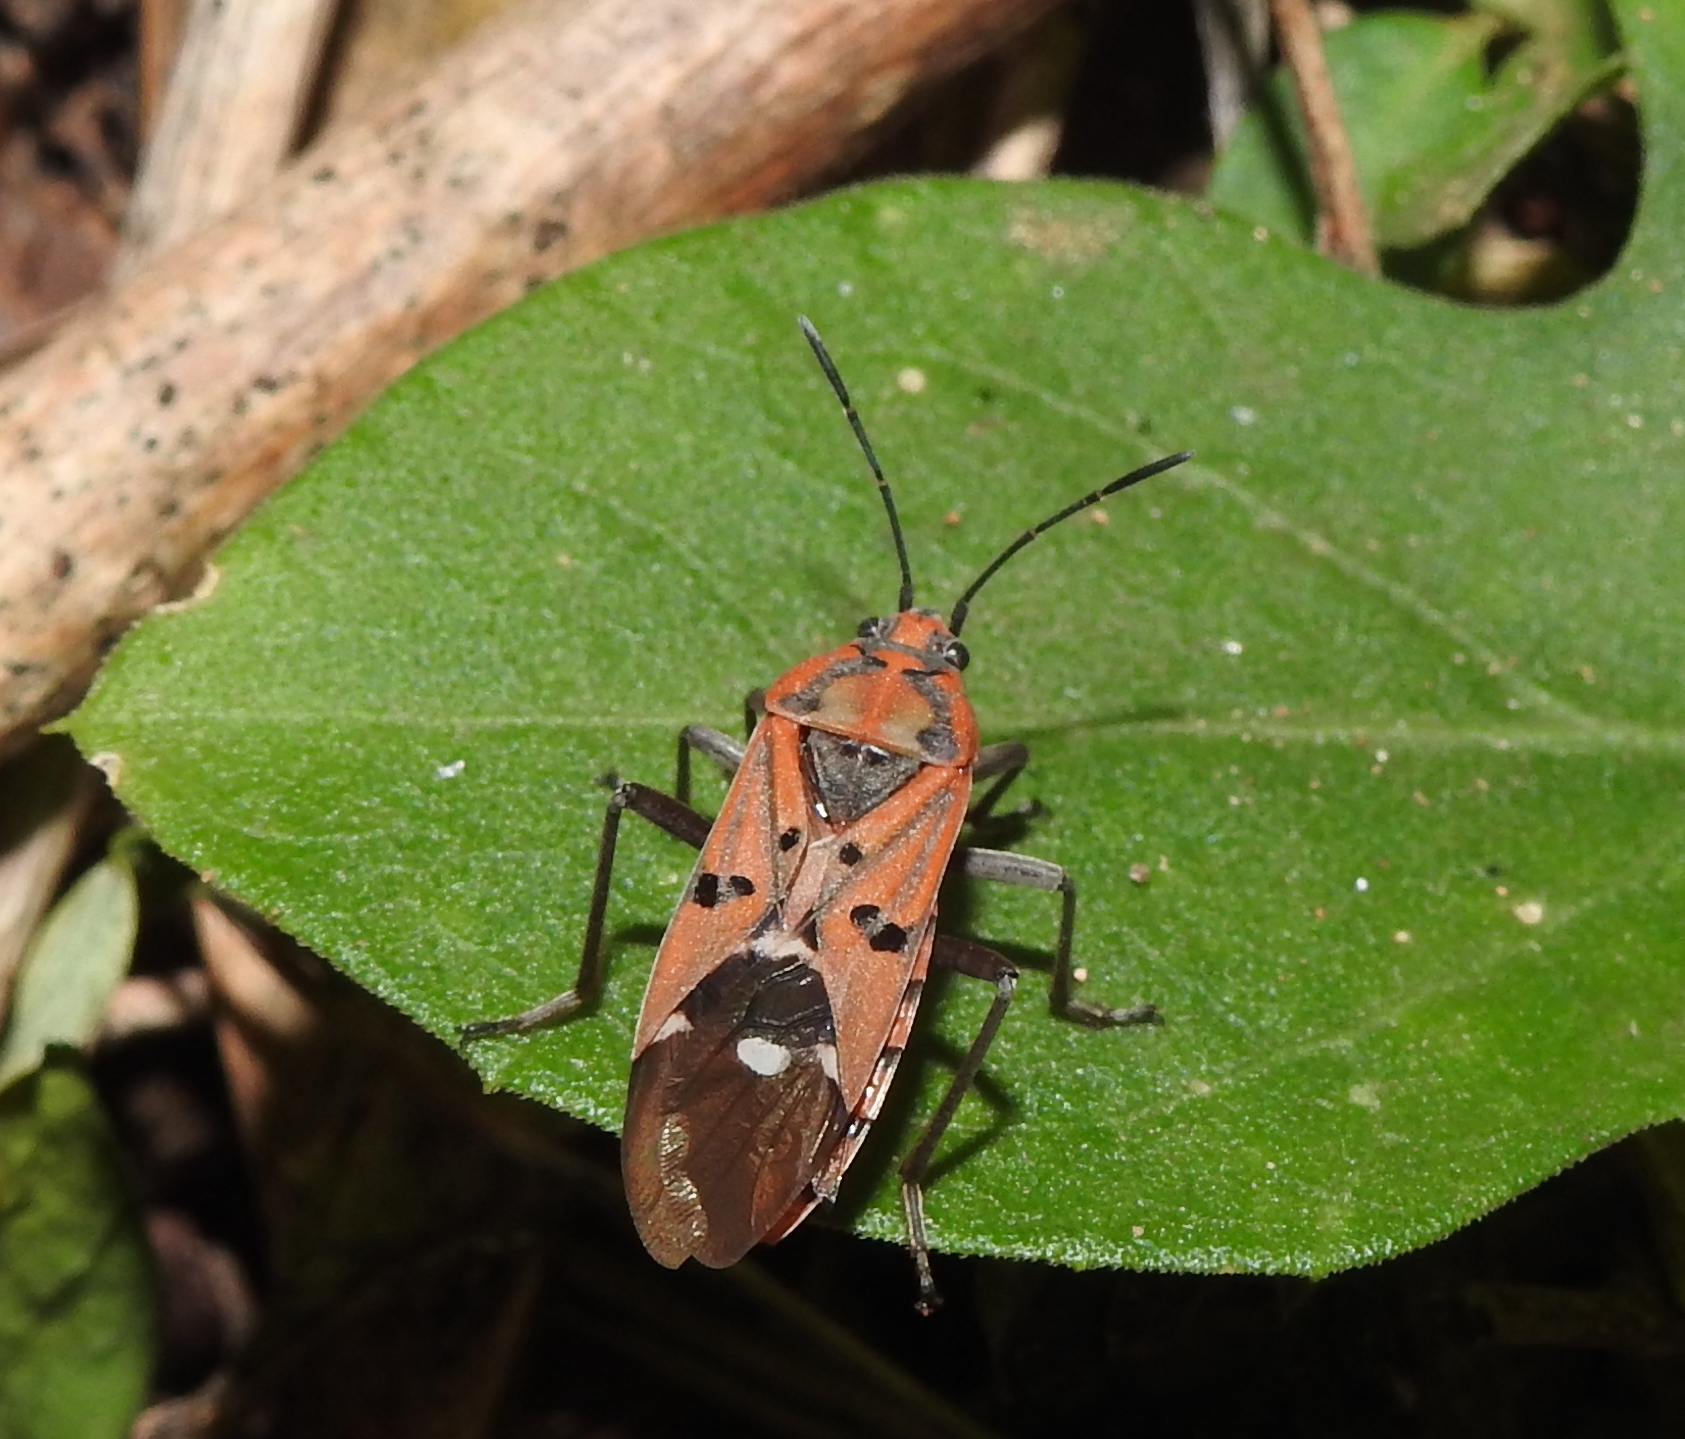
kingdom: Animalia
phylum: Arthropoda
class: Insecta
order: Hemiptera
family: Lygaeidae
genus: Spilostethus
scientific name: Spilostethus pandurus
